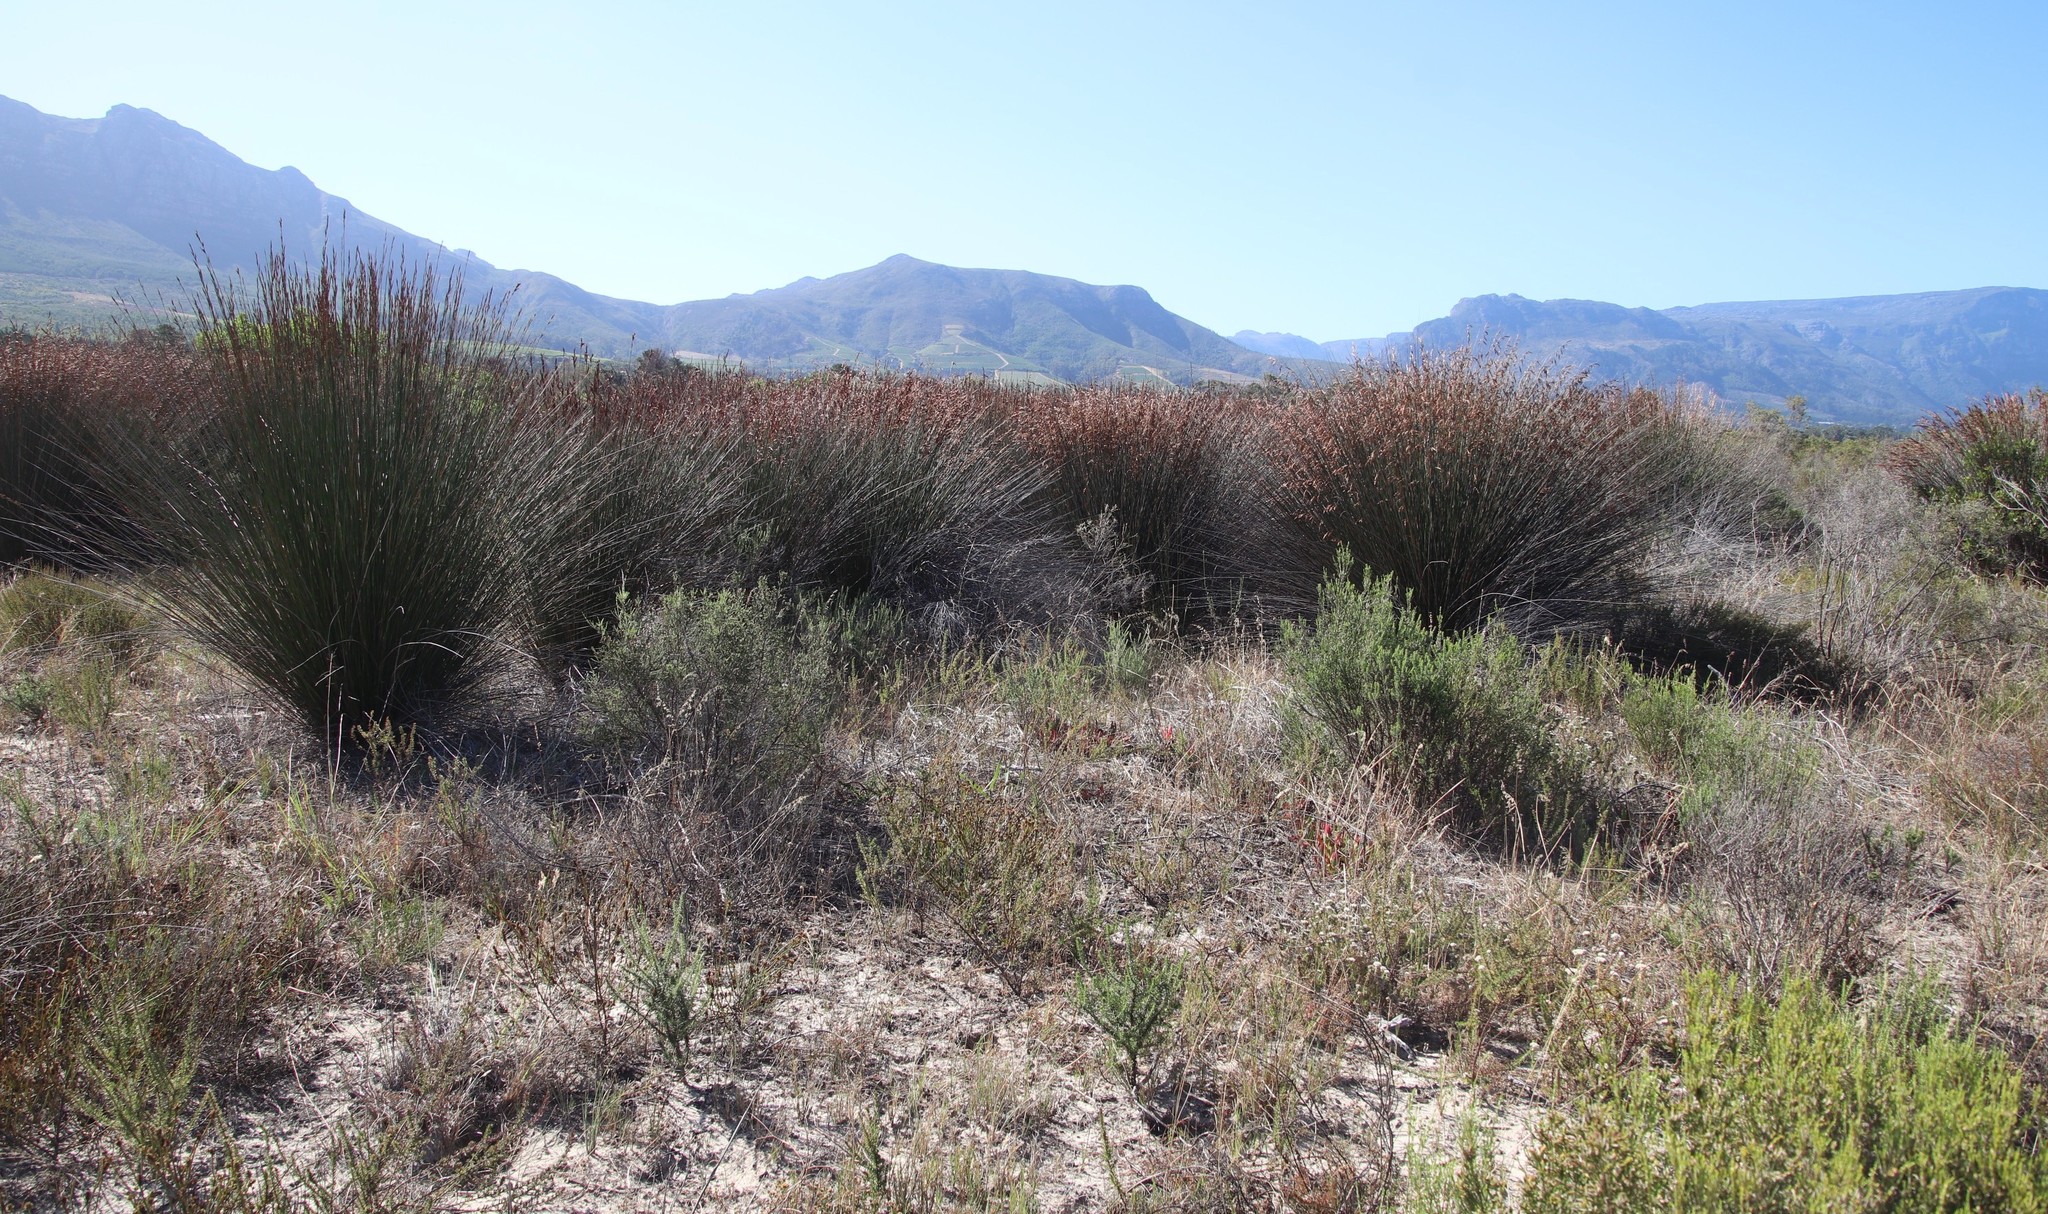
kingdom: Plantae
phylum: Tracheophyta
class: Liliopsida
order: Poales
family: Restionaceae
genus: Thamnochortus
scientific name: Thamnochortus insignis
